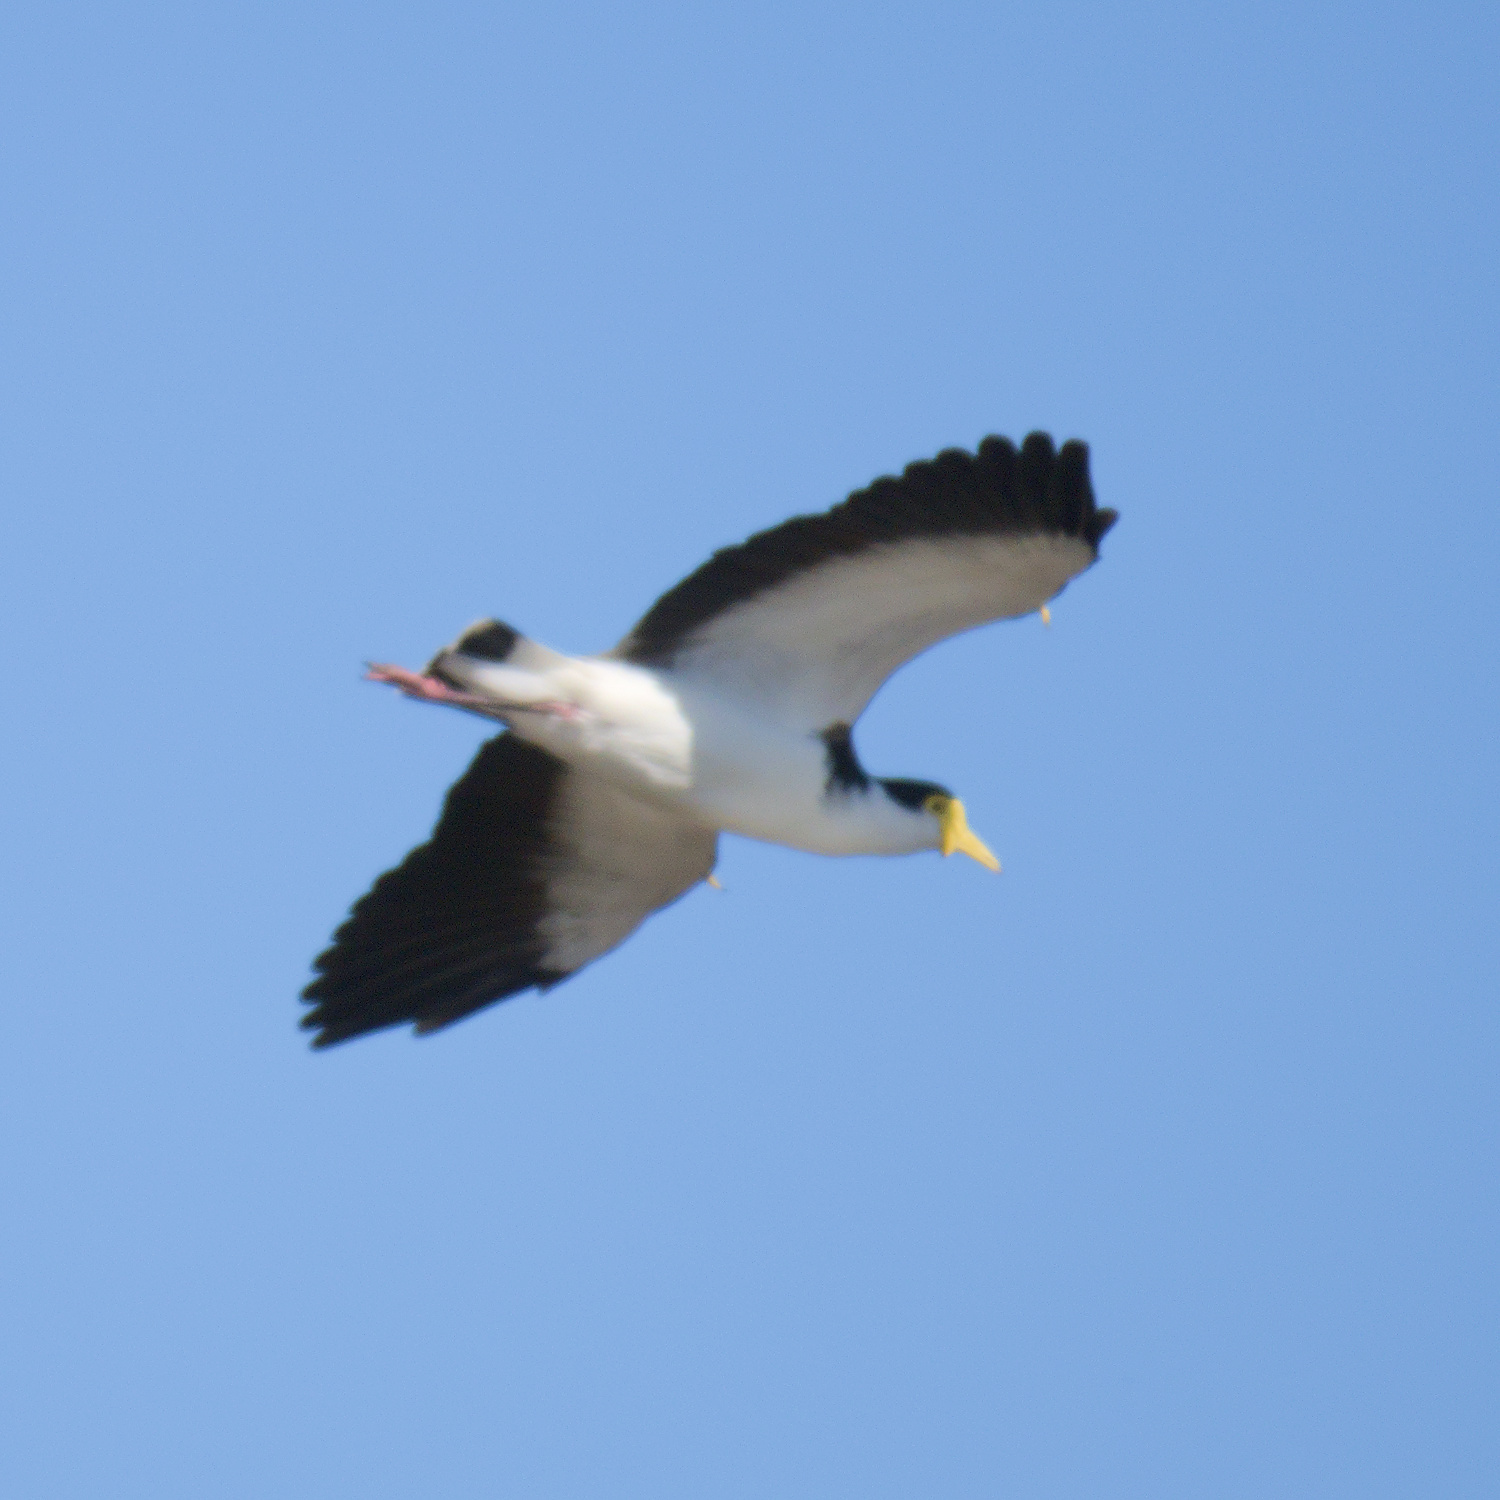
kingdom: Animalia
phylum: Chordata
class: Aves
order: Charadriiformes
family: Charadriidae
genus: Vanellus
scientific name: Vanellus miles
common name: Masked lapwing
